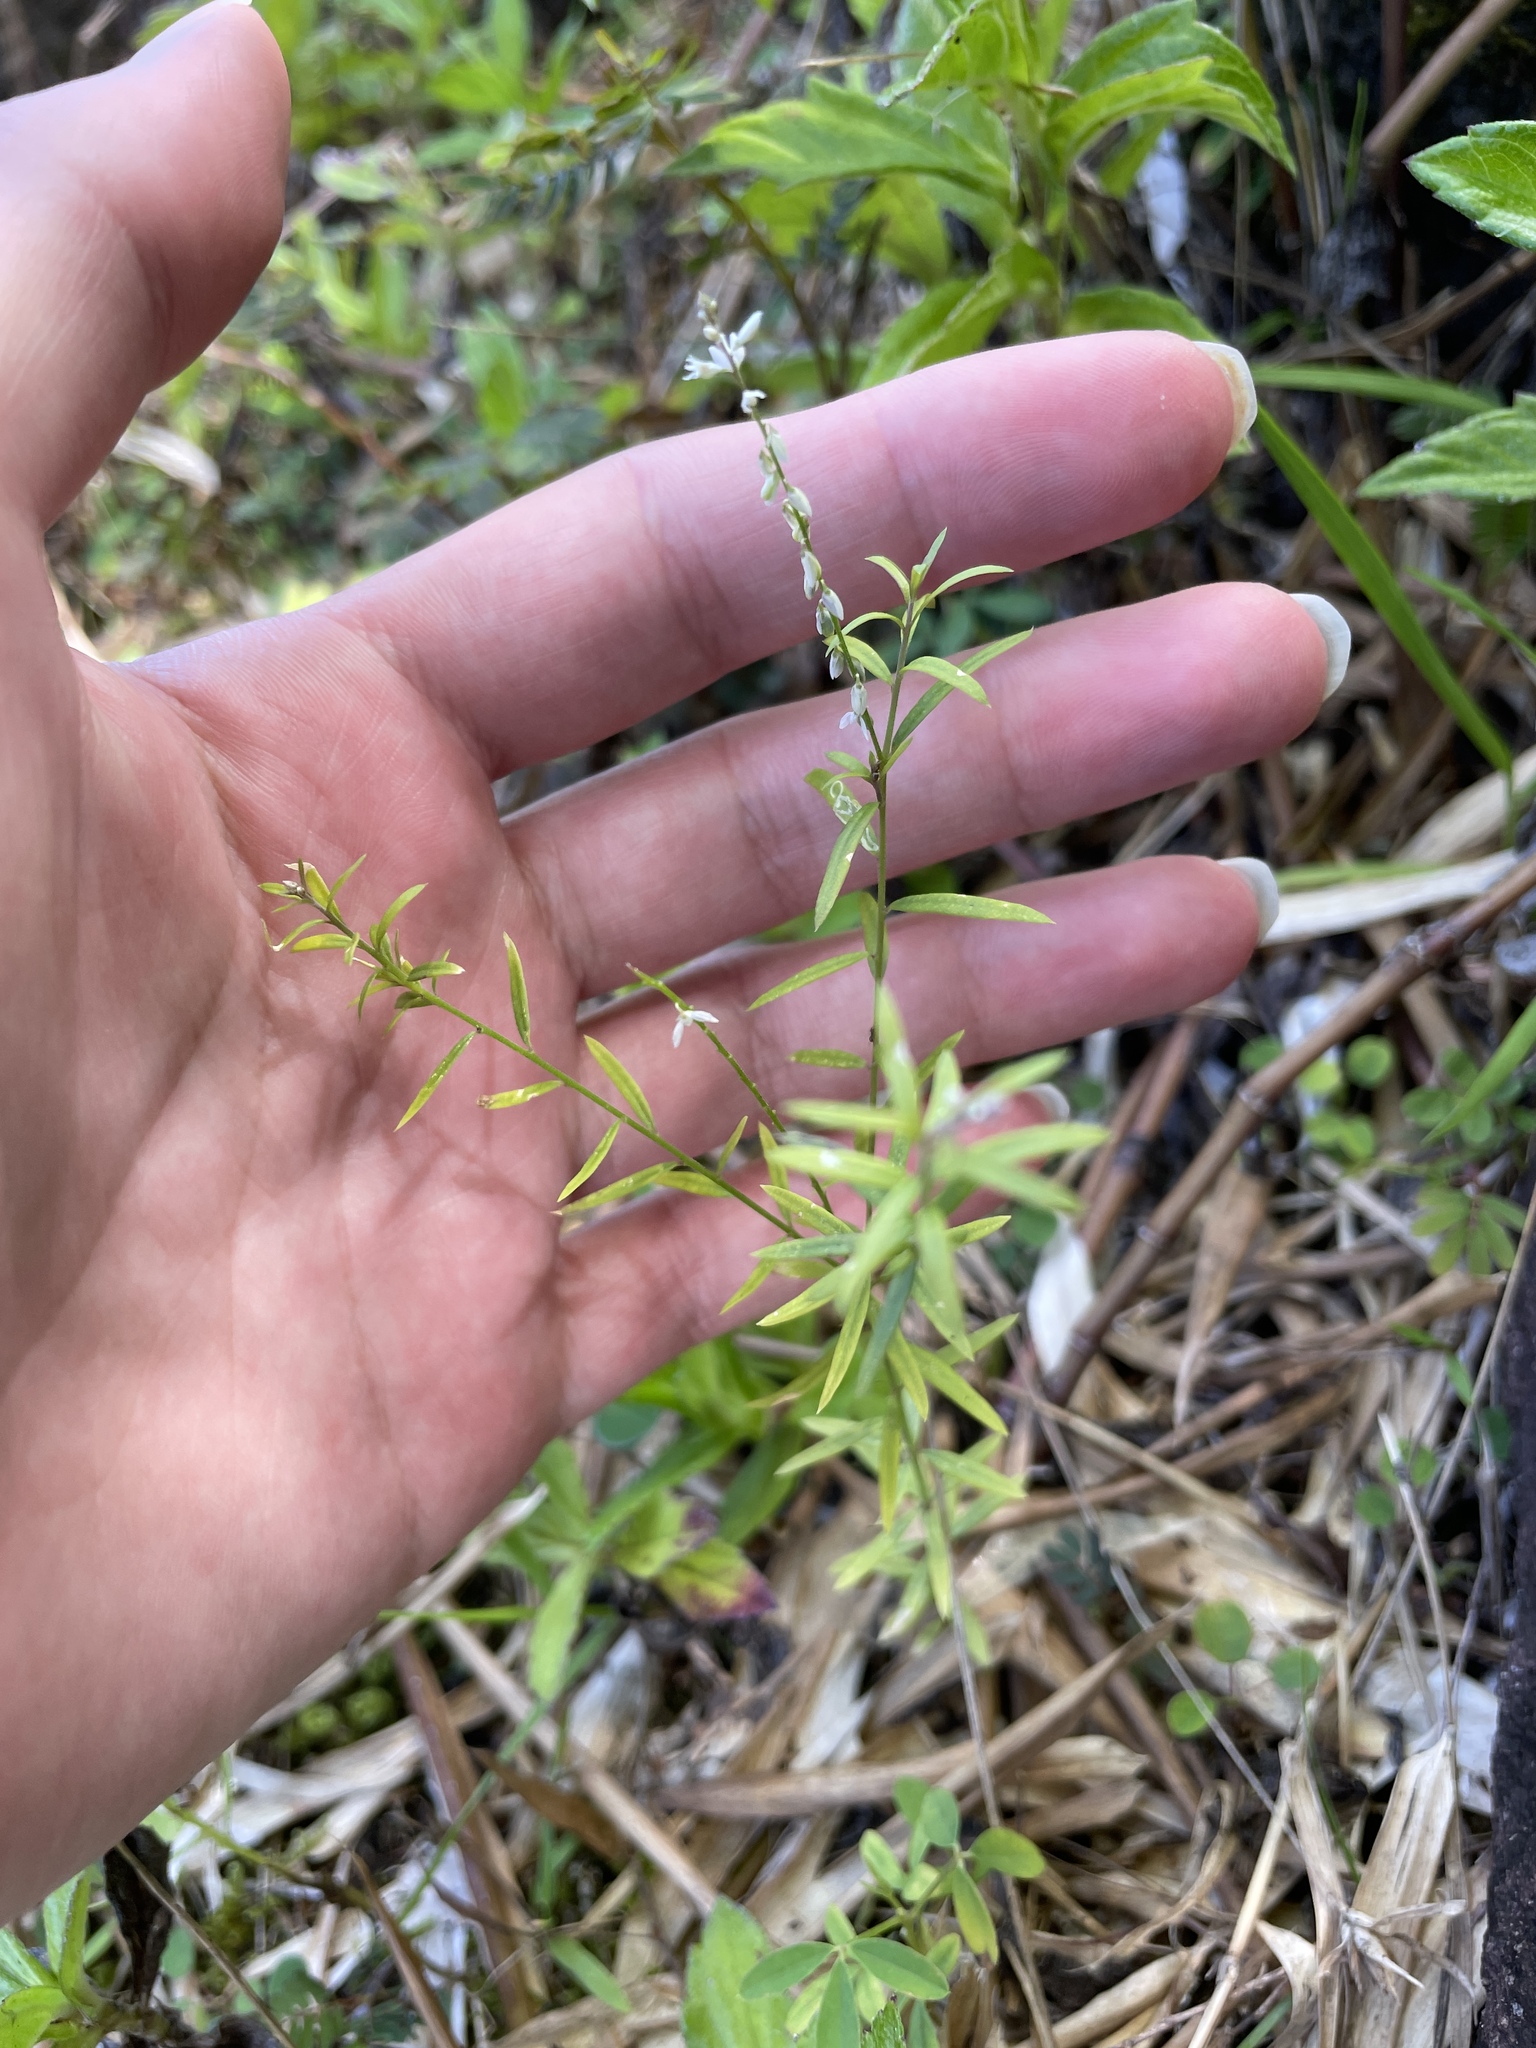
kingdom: Plantae
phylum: Tracheophyta
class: Magnoliopsida
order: Fabales
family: Polygalaceae
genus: Polygala
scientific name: Polygala paniculata
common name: Orosne
